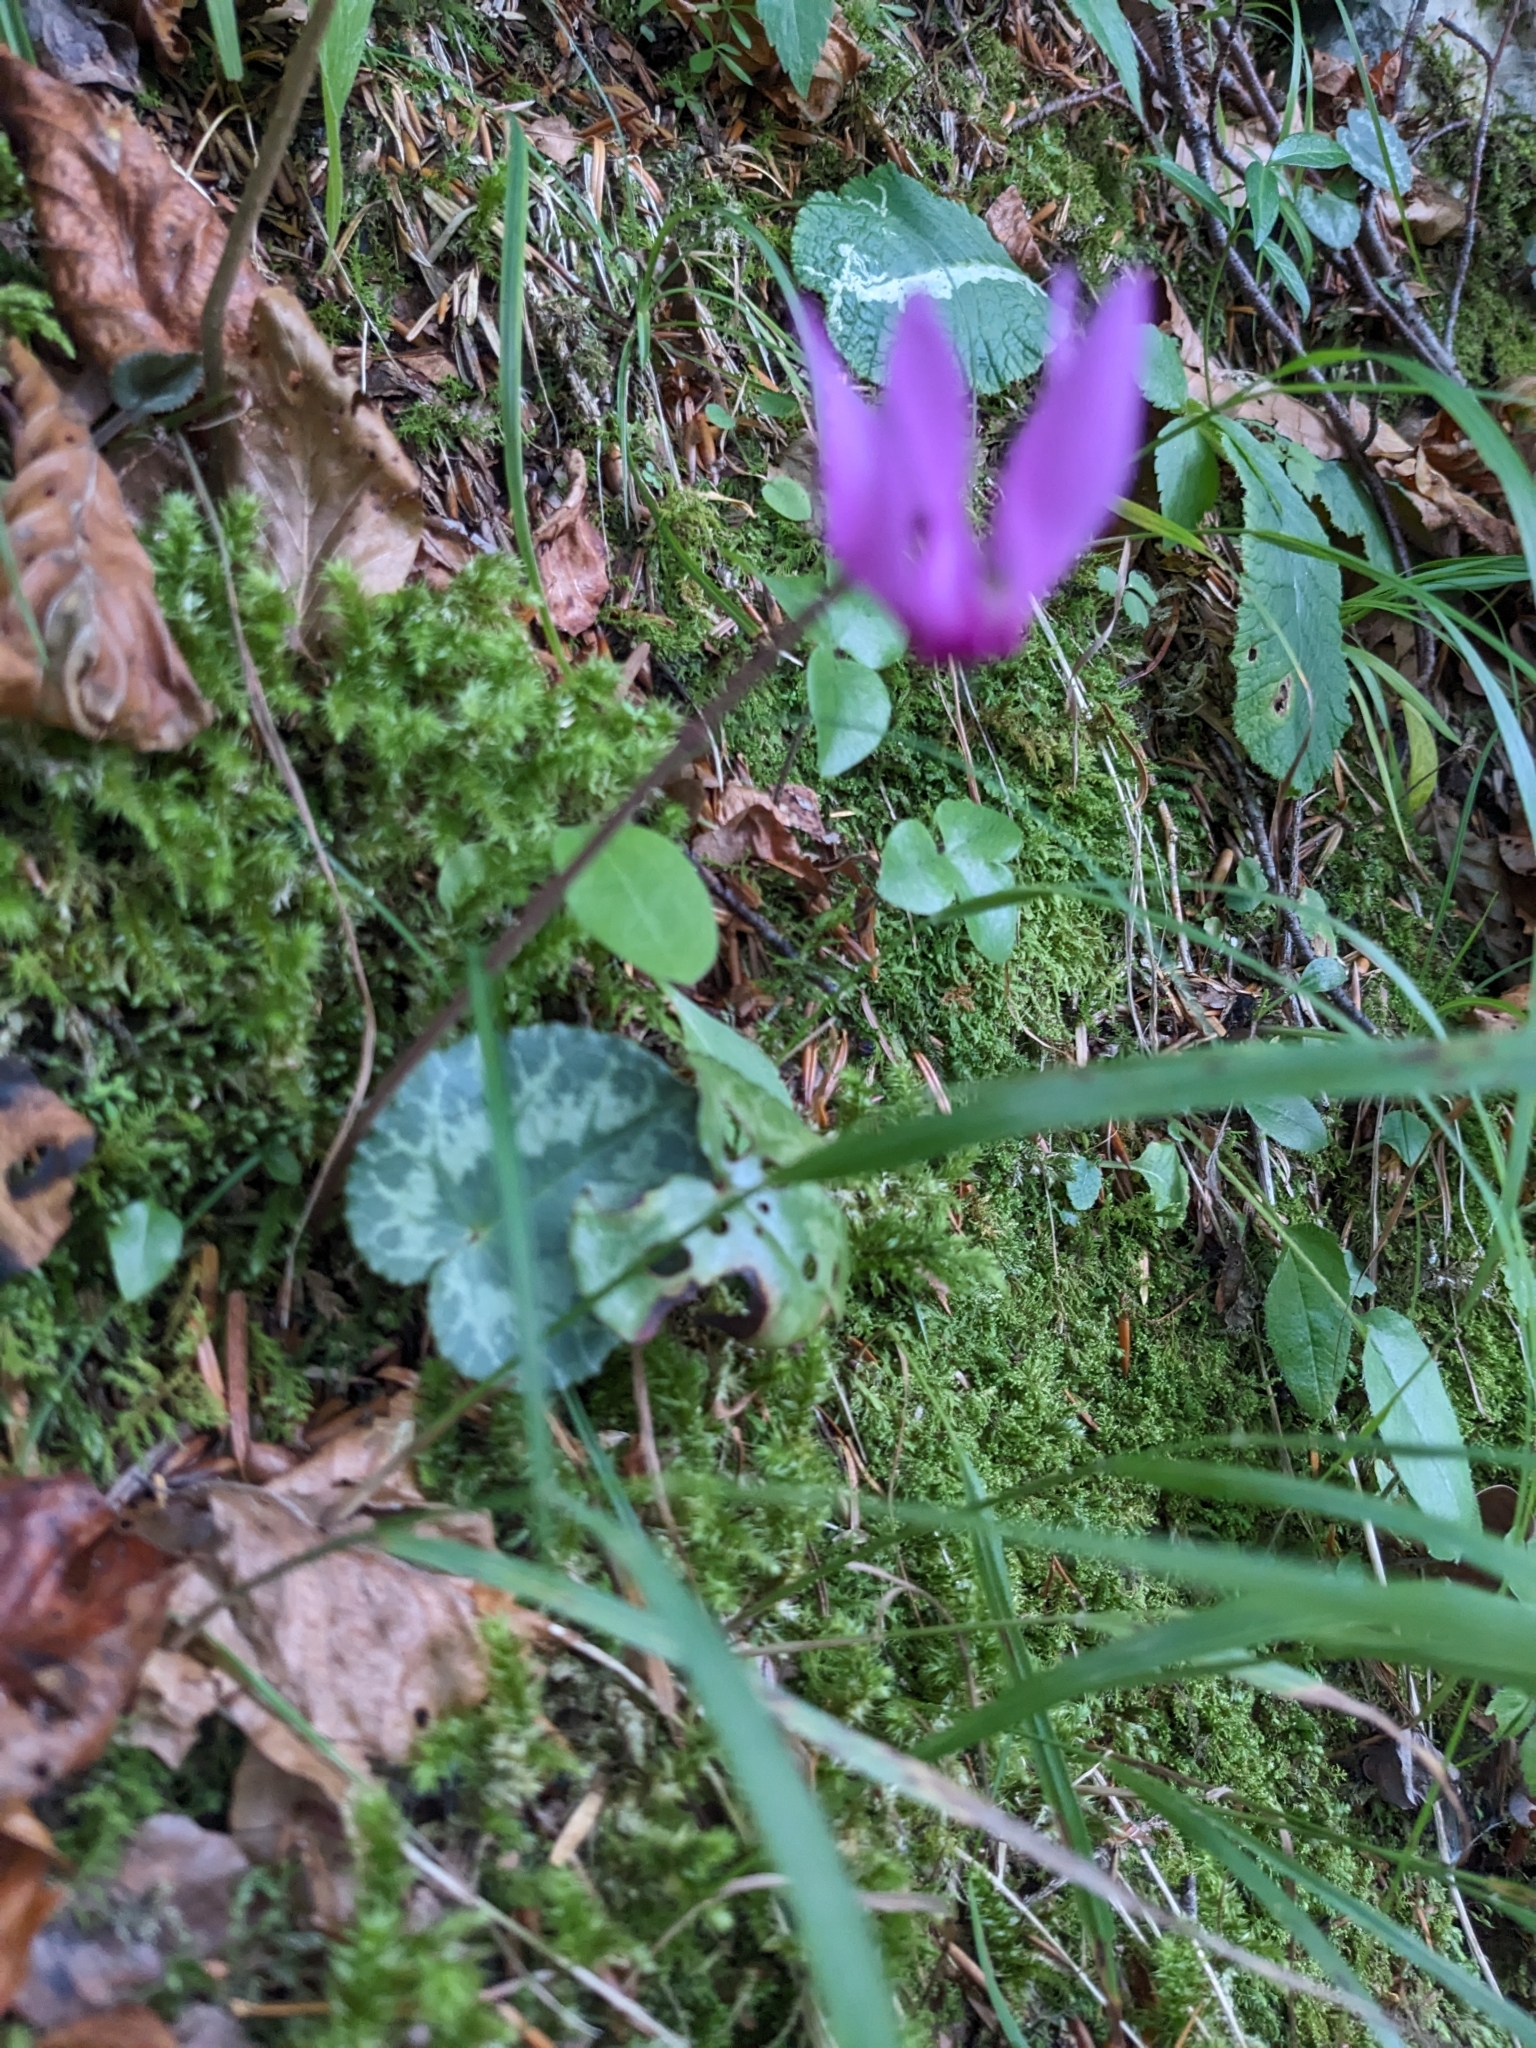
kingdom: Plantae
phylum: Tracheophyta
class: Magnoliopsida
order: Ericales
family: Primulaceae
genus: Cyclamen
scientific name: Cyclamen purpurascens
